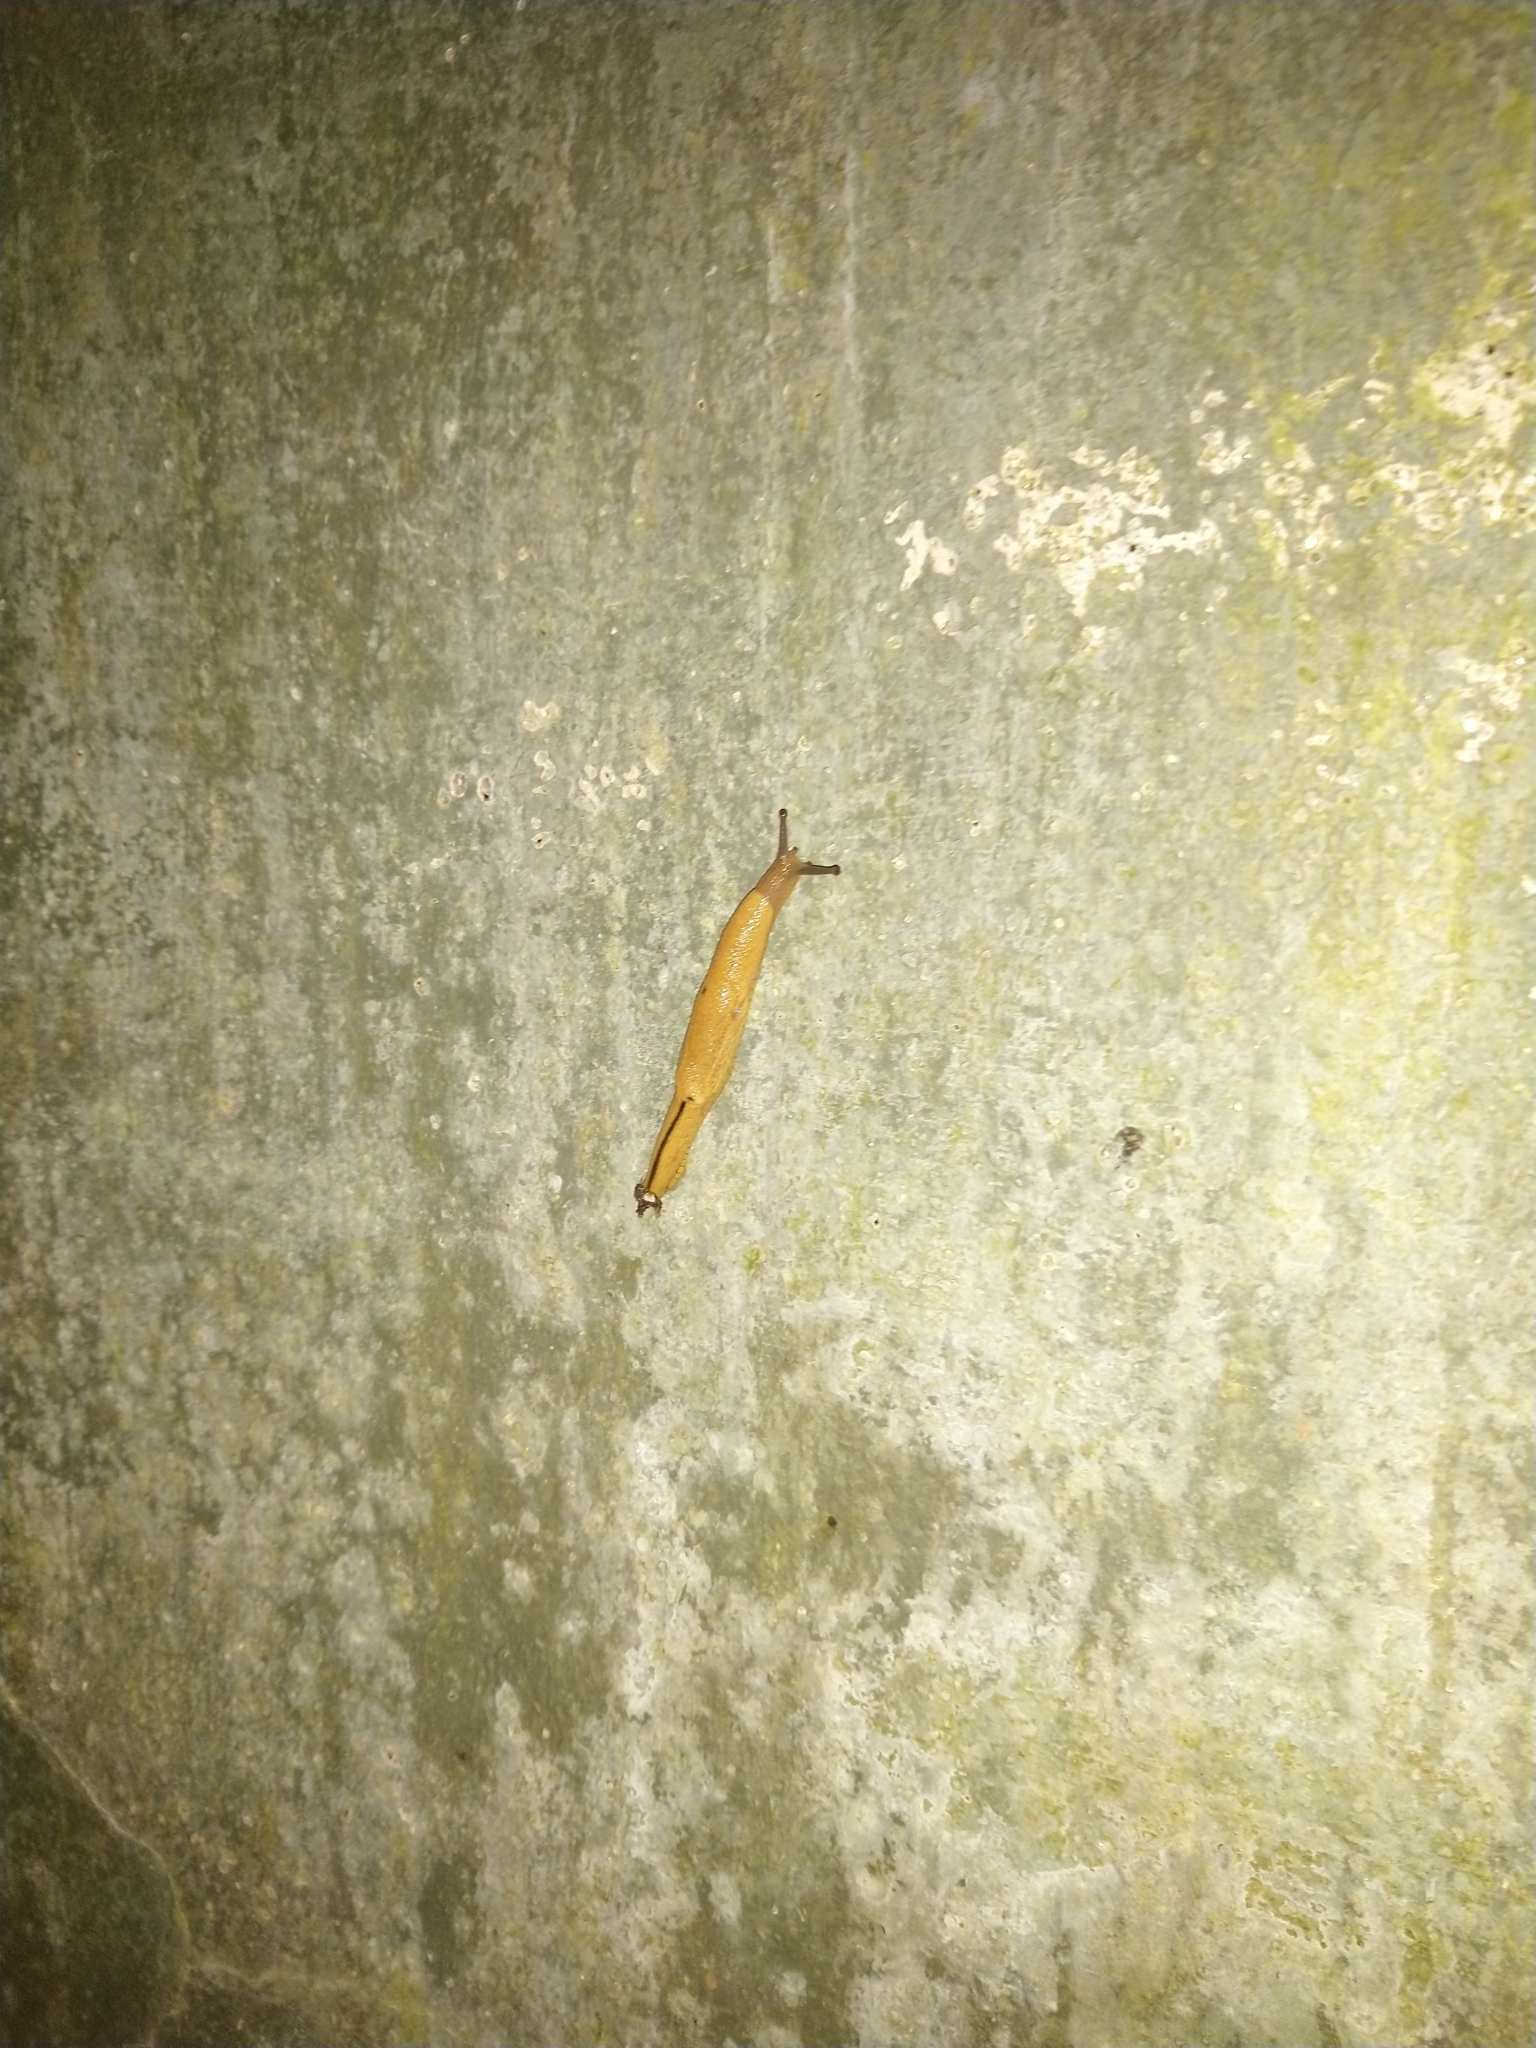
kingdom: Animalia
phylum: Mollusca
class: Gastropoda
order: Stylommatophora
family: Ariophantidae
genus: Mariaella
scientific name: Mariaella dussumieri
